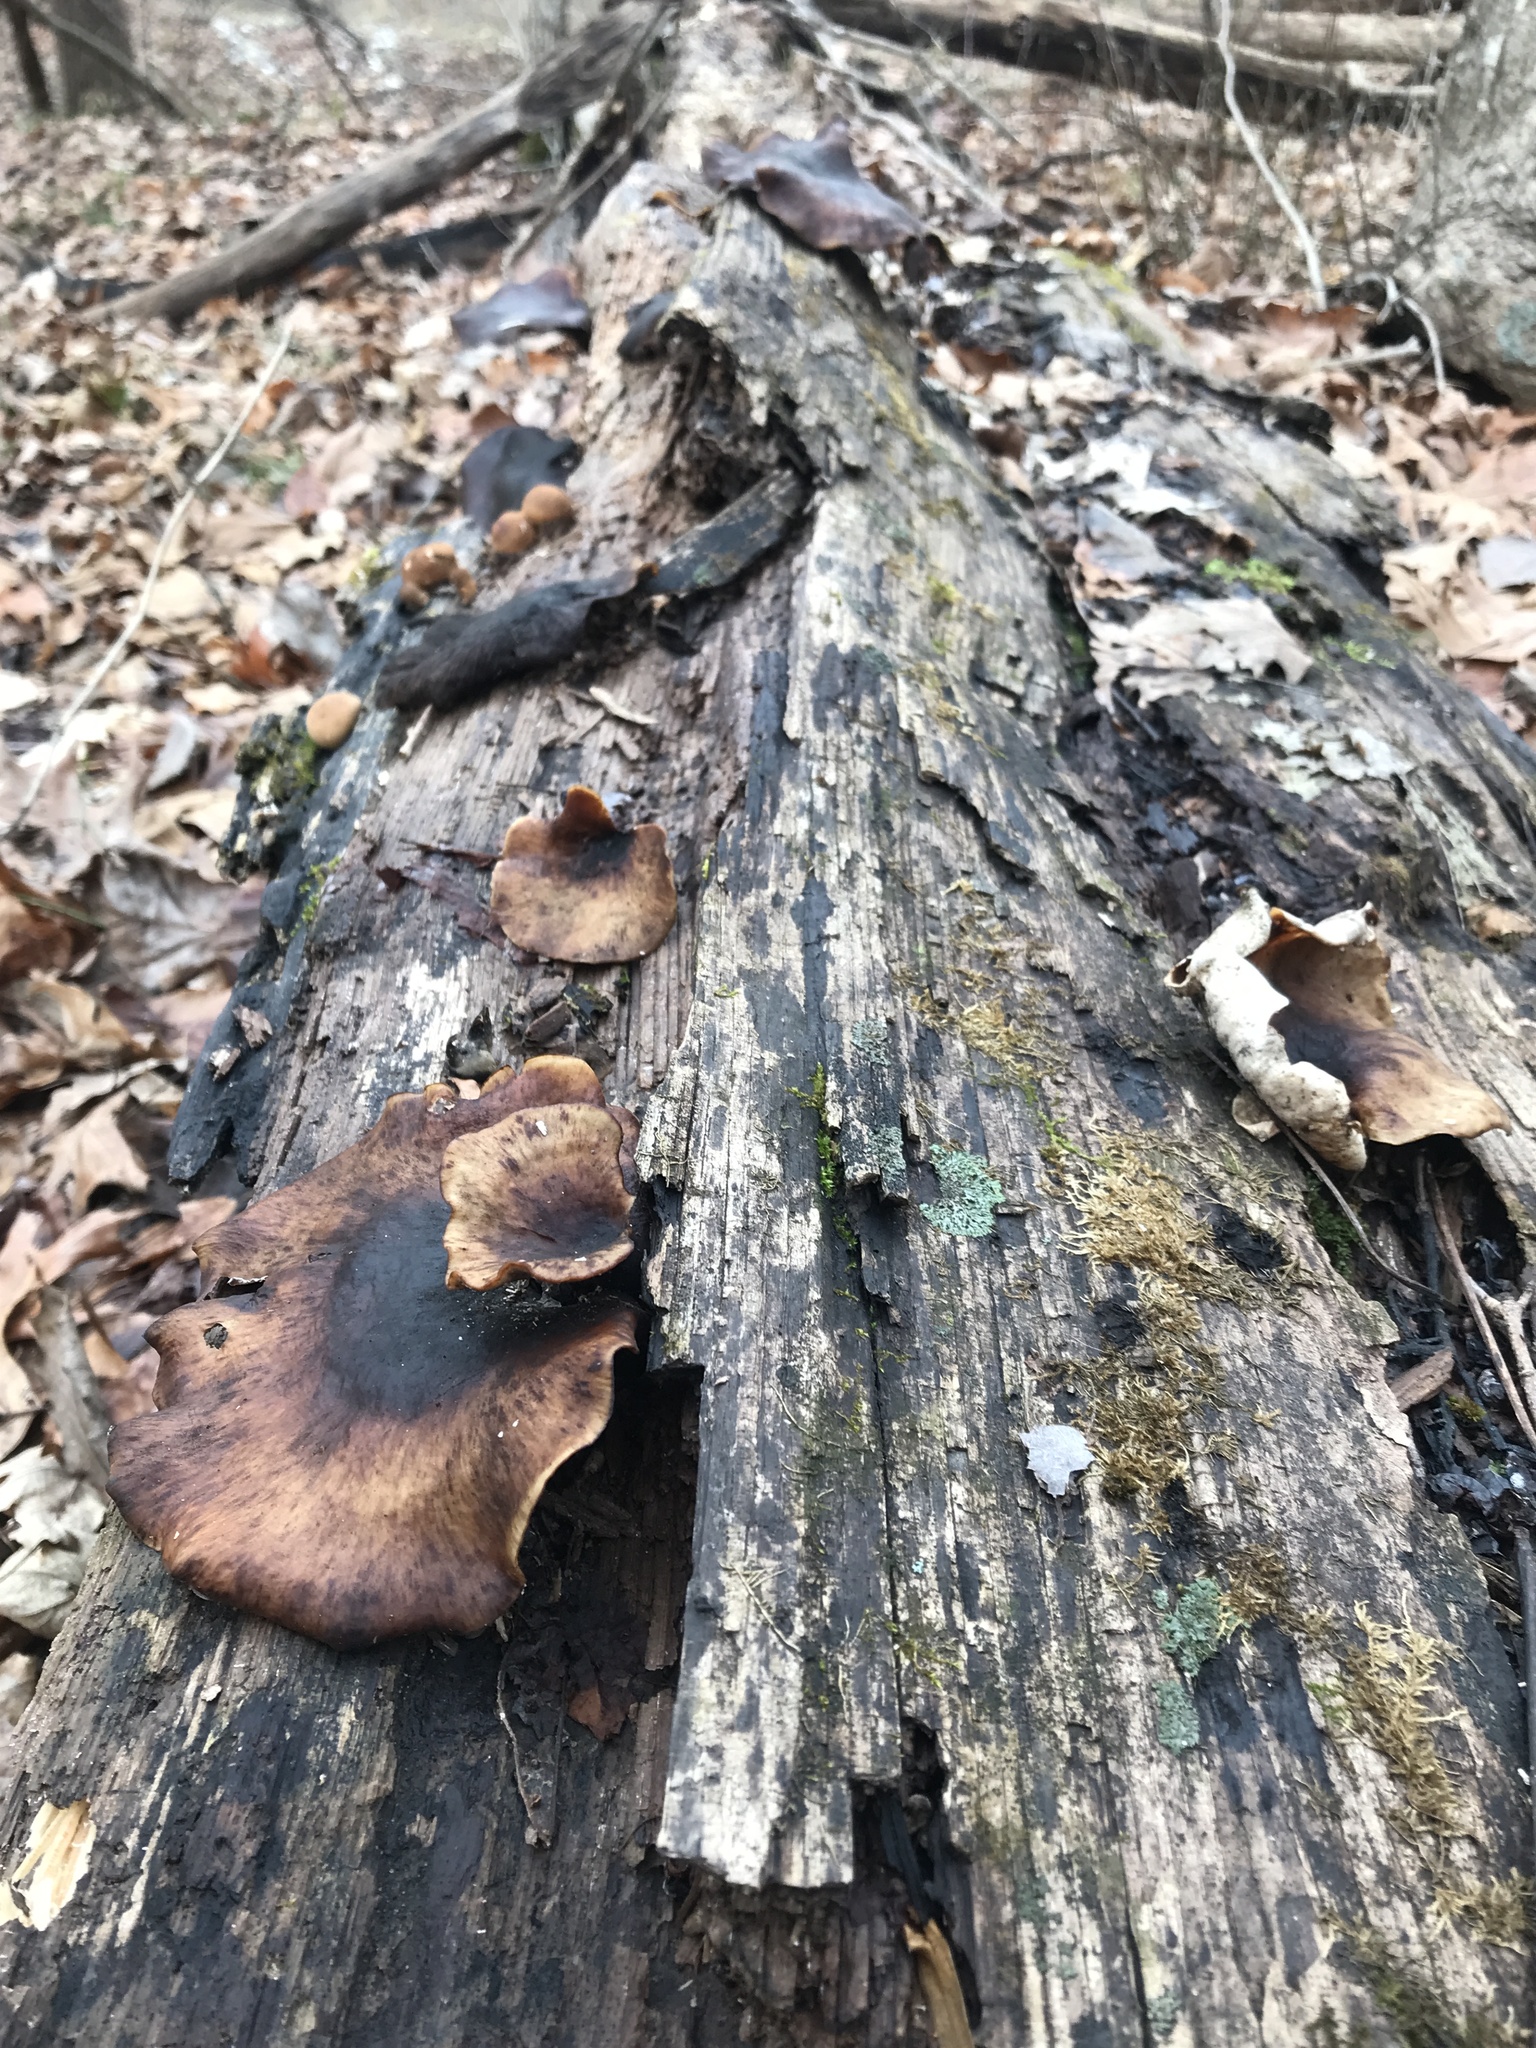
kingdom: Fungi
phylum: Basidiomycota
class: Agaricomycetes
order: Polyporales
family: Polyporaceae
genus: Picipes
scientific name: Picipes badius
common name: Bay polypore
